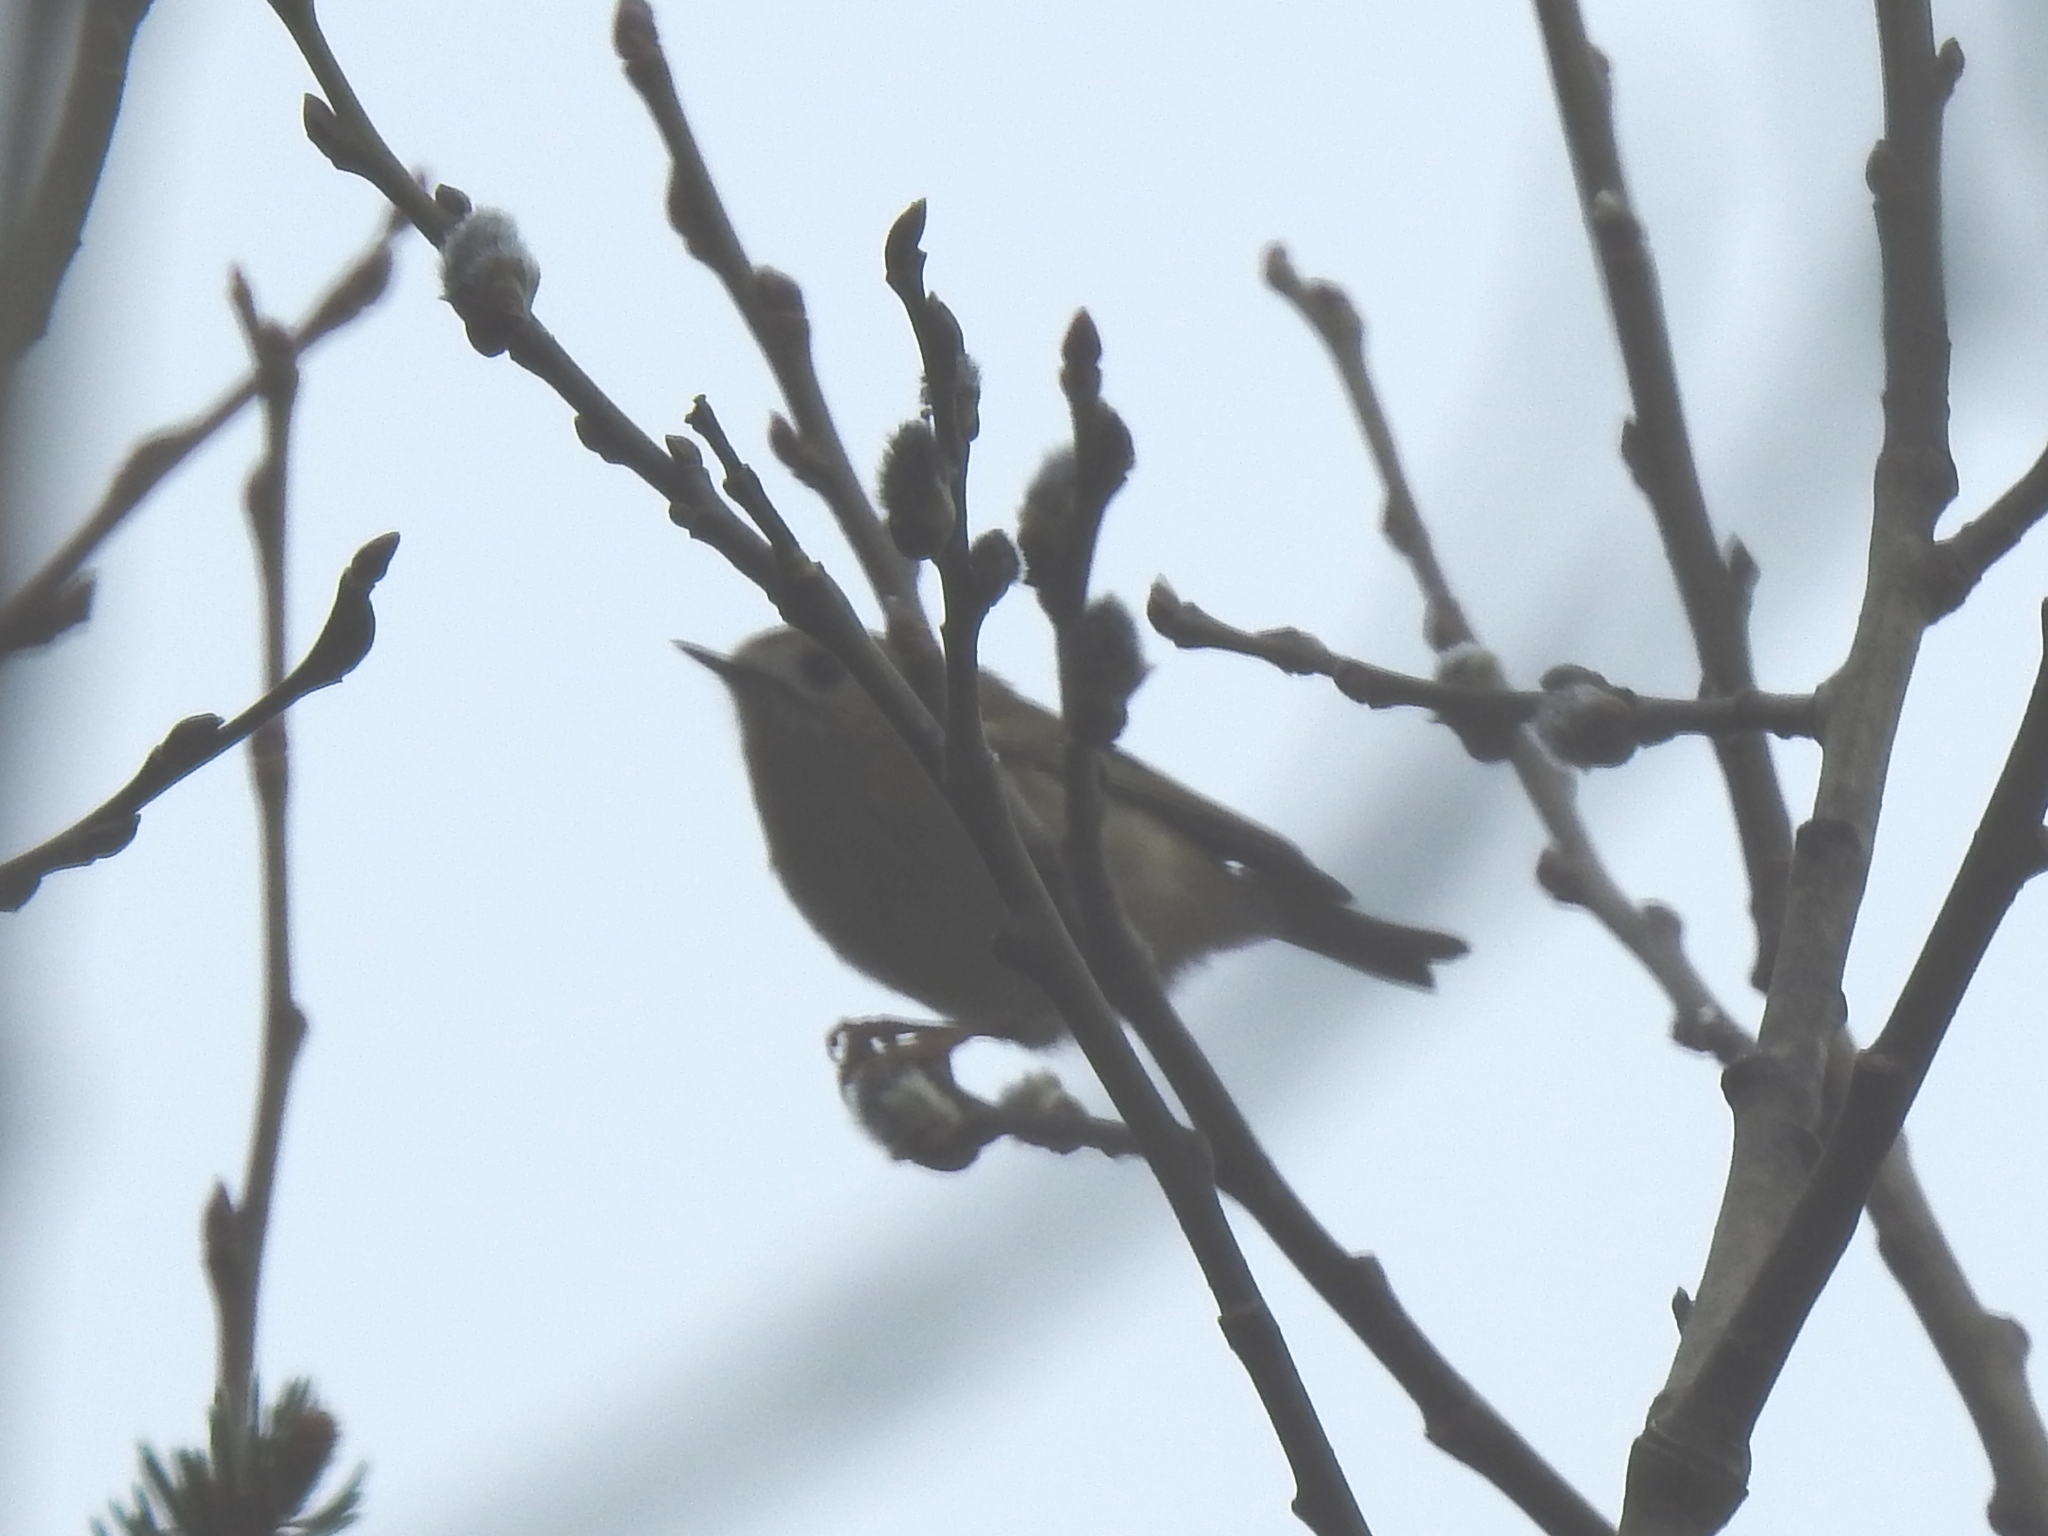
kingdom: Animalia
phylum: Chordata
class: Aves
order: Passeriformes
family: Regulidae
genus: Regulus
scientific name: Regulus regulus
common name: Goldcrest
